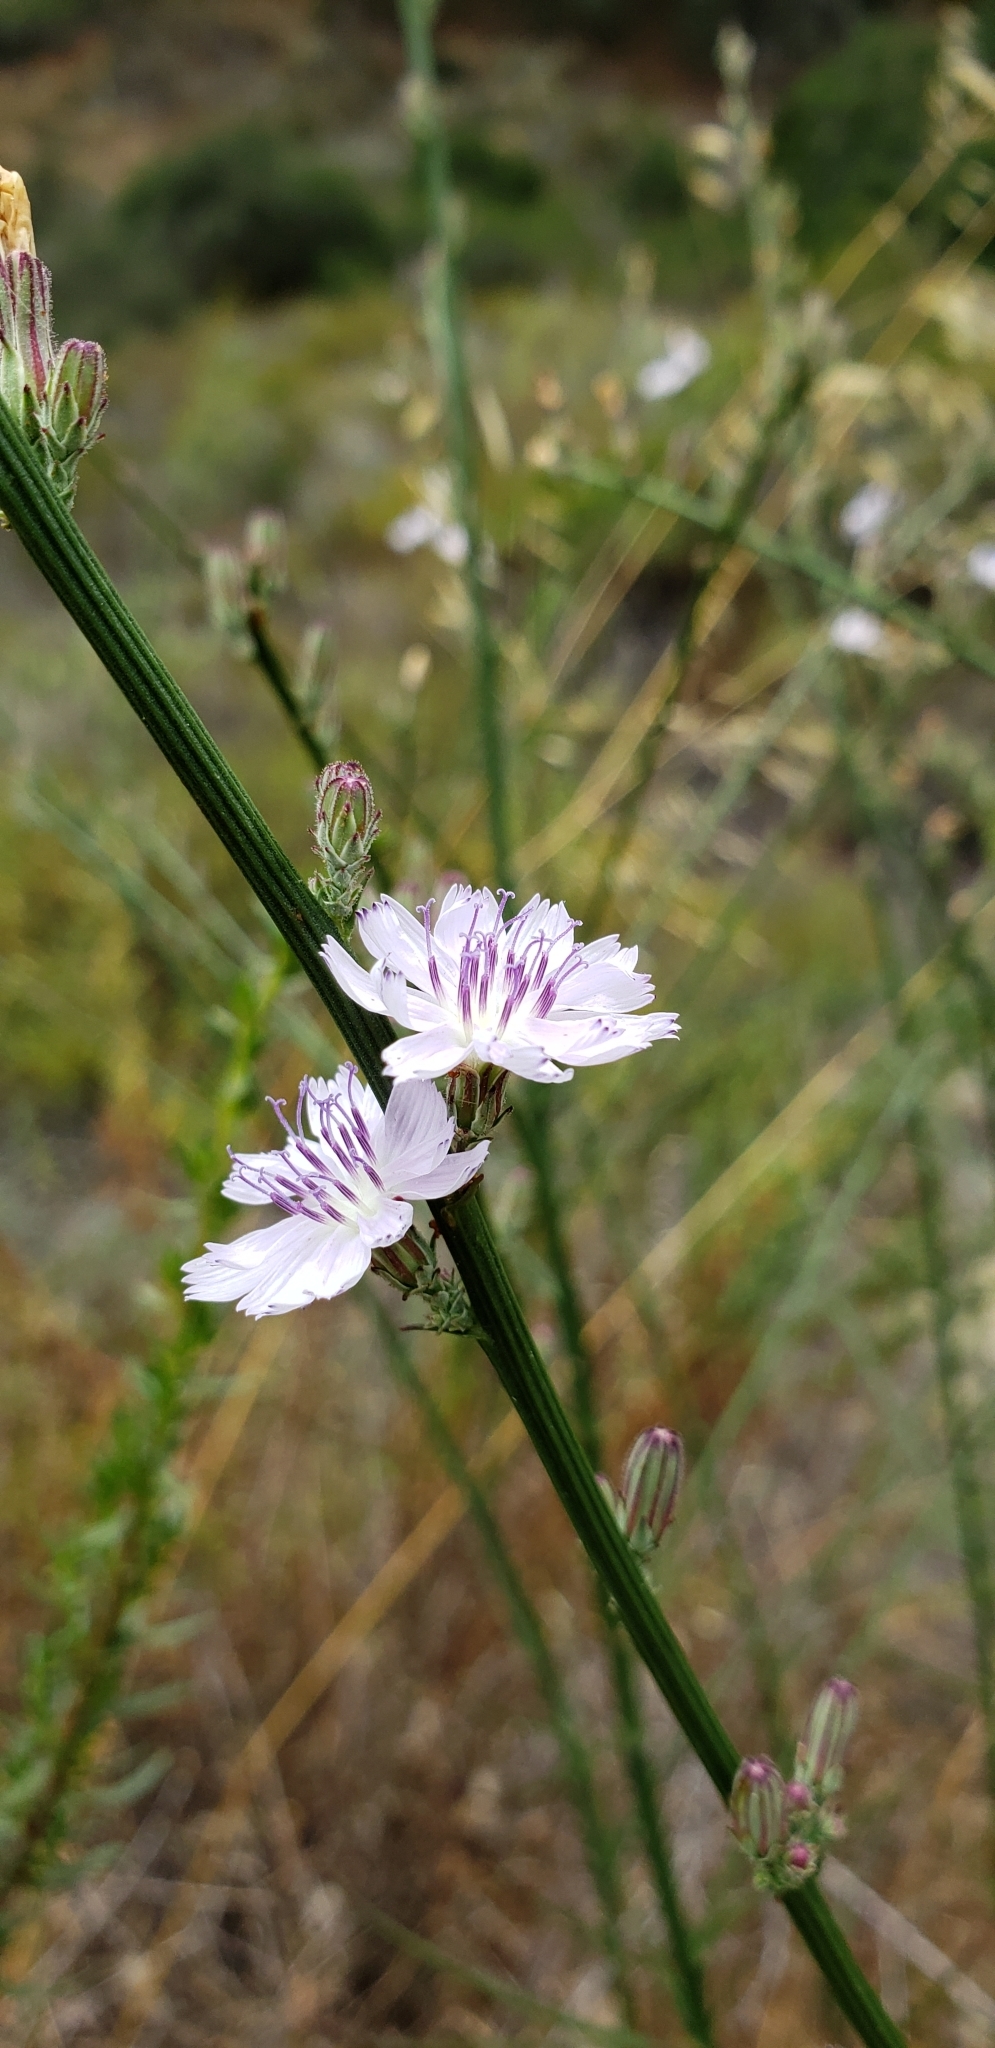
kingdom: Plantae
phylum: Tracheophyta
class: Magnoliopsida
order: Asterales
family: Asteraceae
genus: Stephanomeria
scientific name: Stephanomeria diegensis
